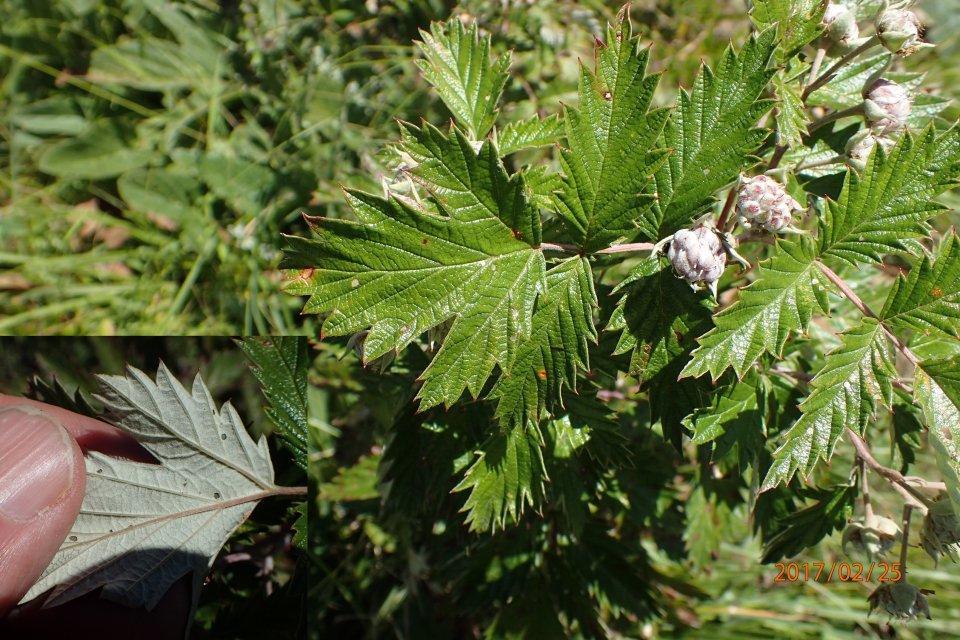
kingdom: Plantae
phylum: Tracheophyta
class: Magnoliopsida
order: Rosales
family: Rosaceae
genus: Rubus
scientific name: Rubus ludwigii
